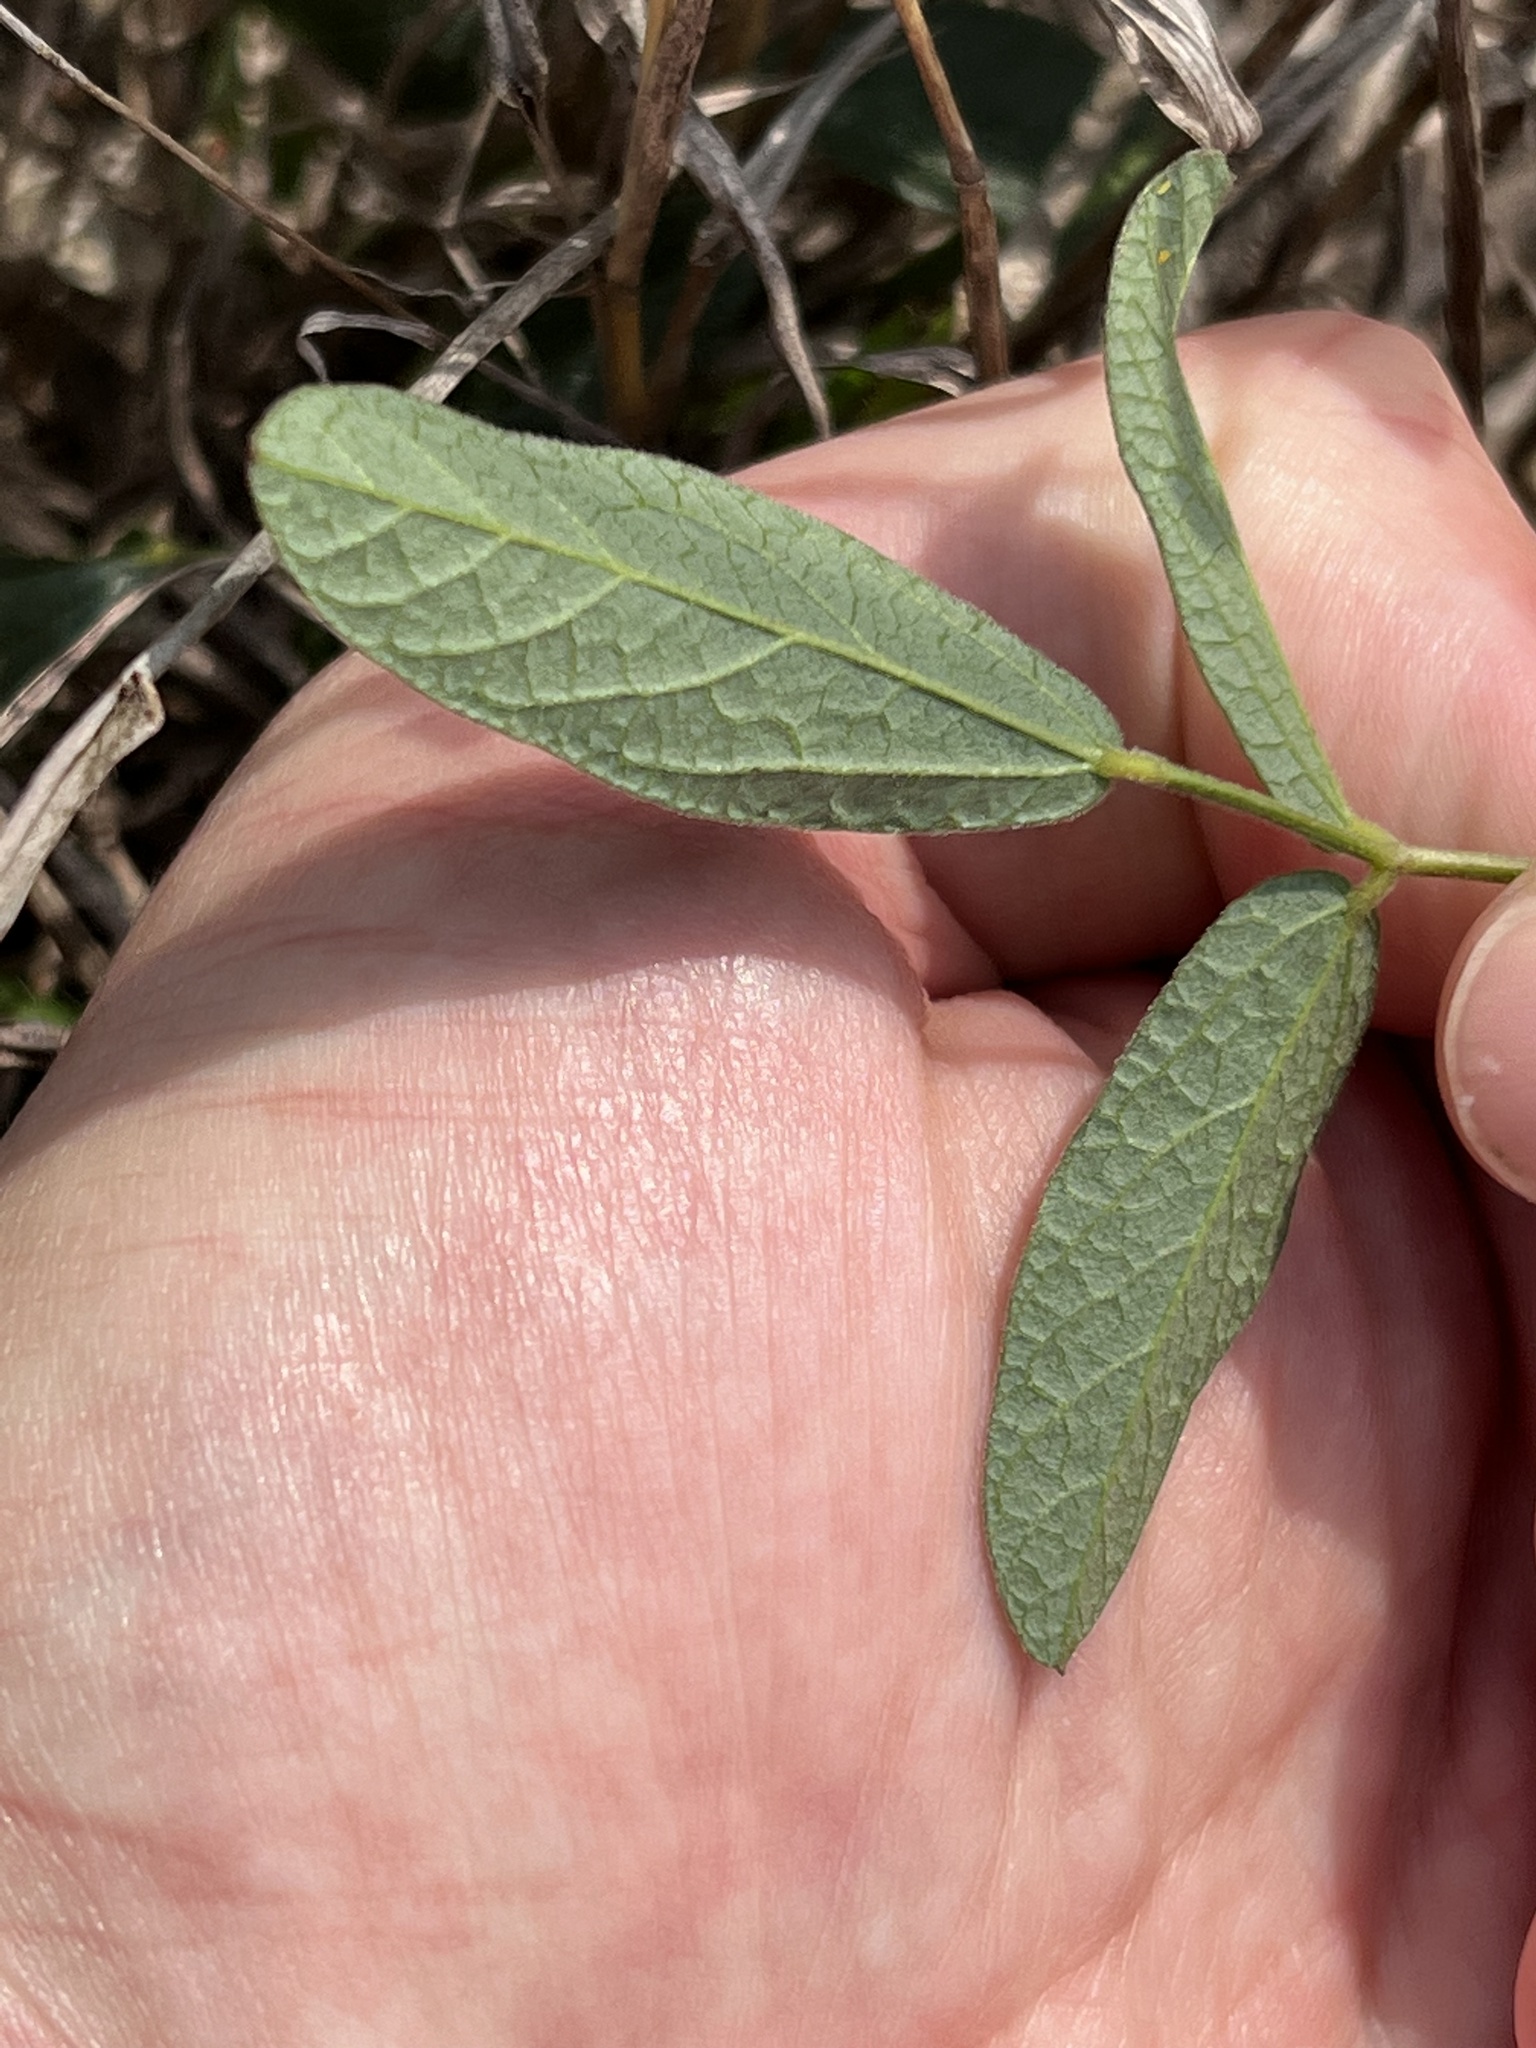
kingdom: Plantae
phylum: Tracheophyta
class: Magnoliopsida
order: Fabales
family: Fabaceae
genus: Rhynchosia
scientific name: Rhynchosia senna
